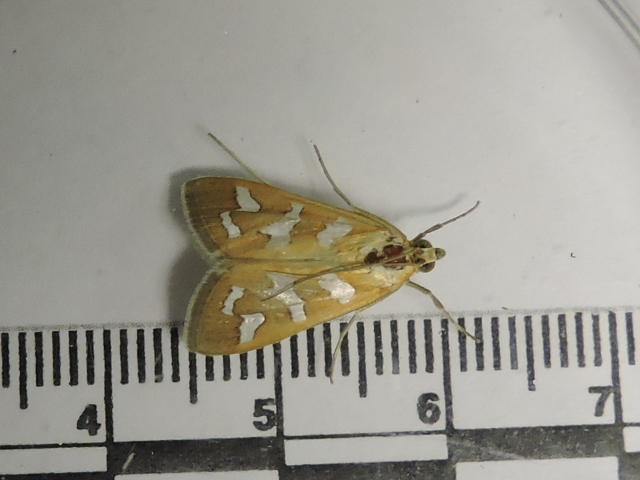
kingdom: Animalia
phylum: Arthropoda
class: Insecta
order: Lepidoptera
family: Crambidae
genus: Diastictis
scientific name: Diastictis fracturalis
